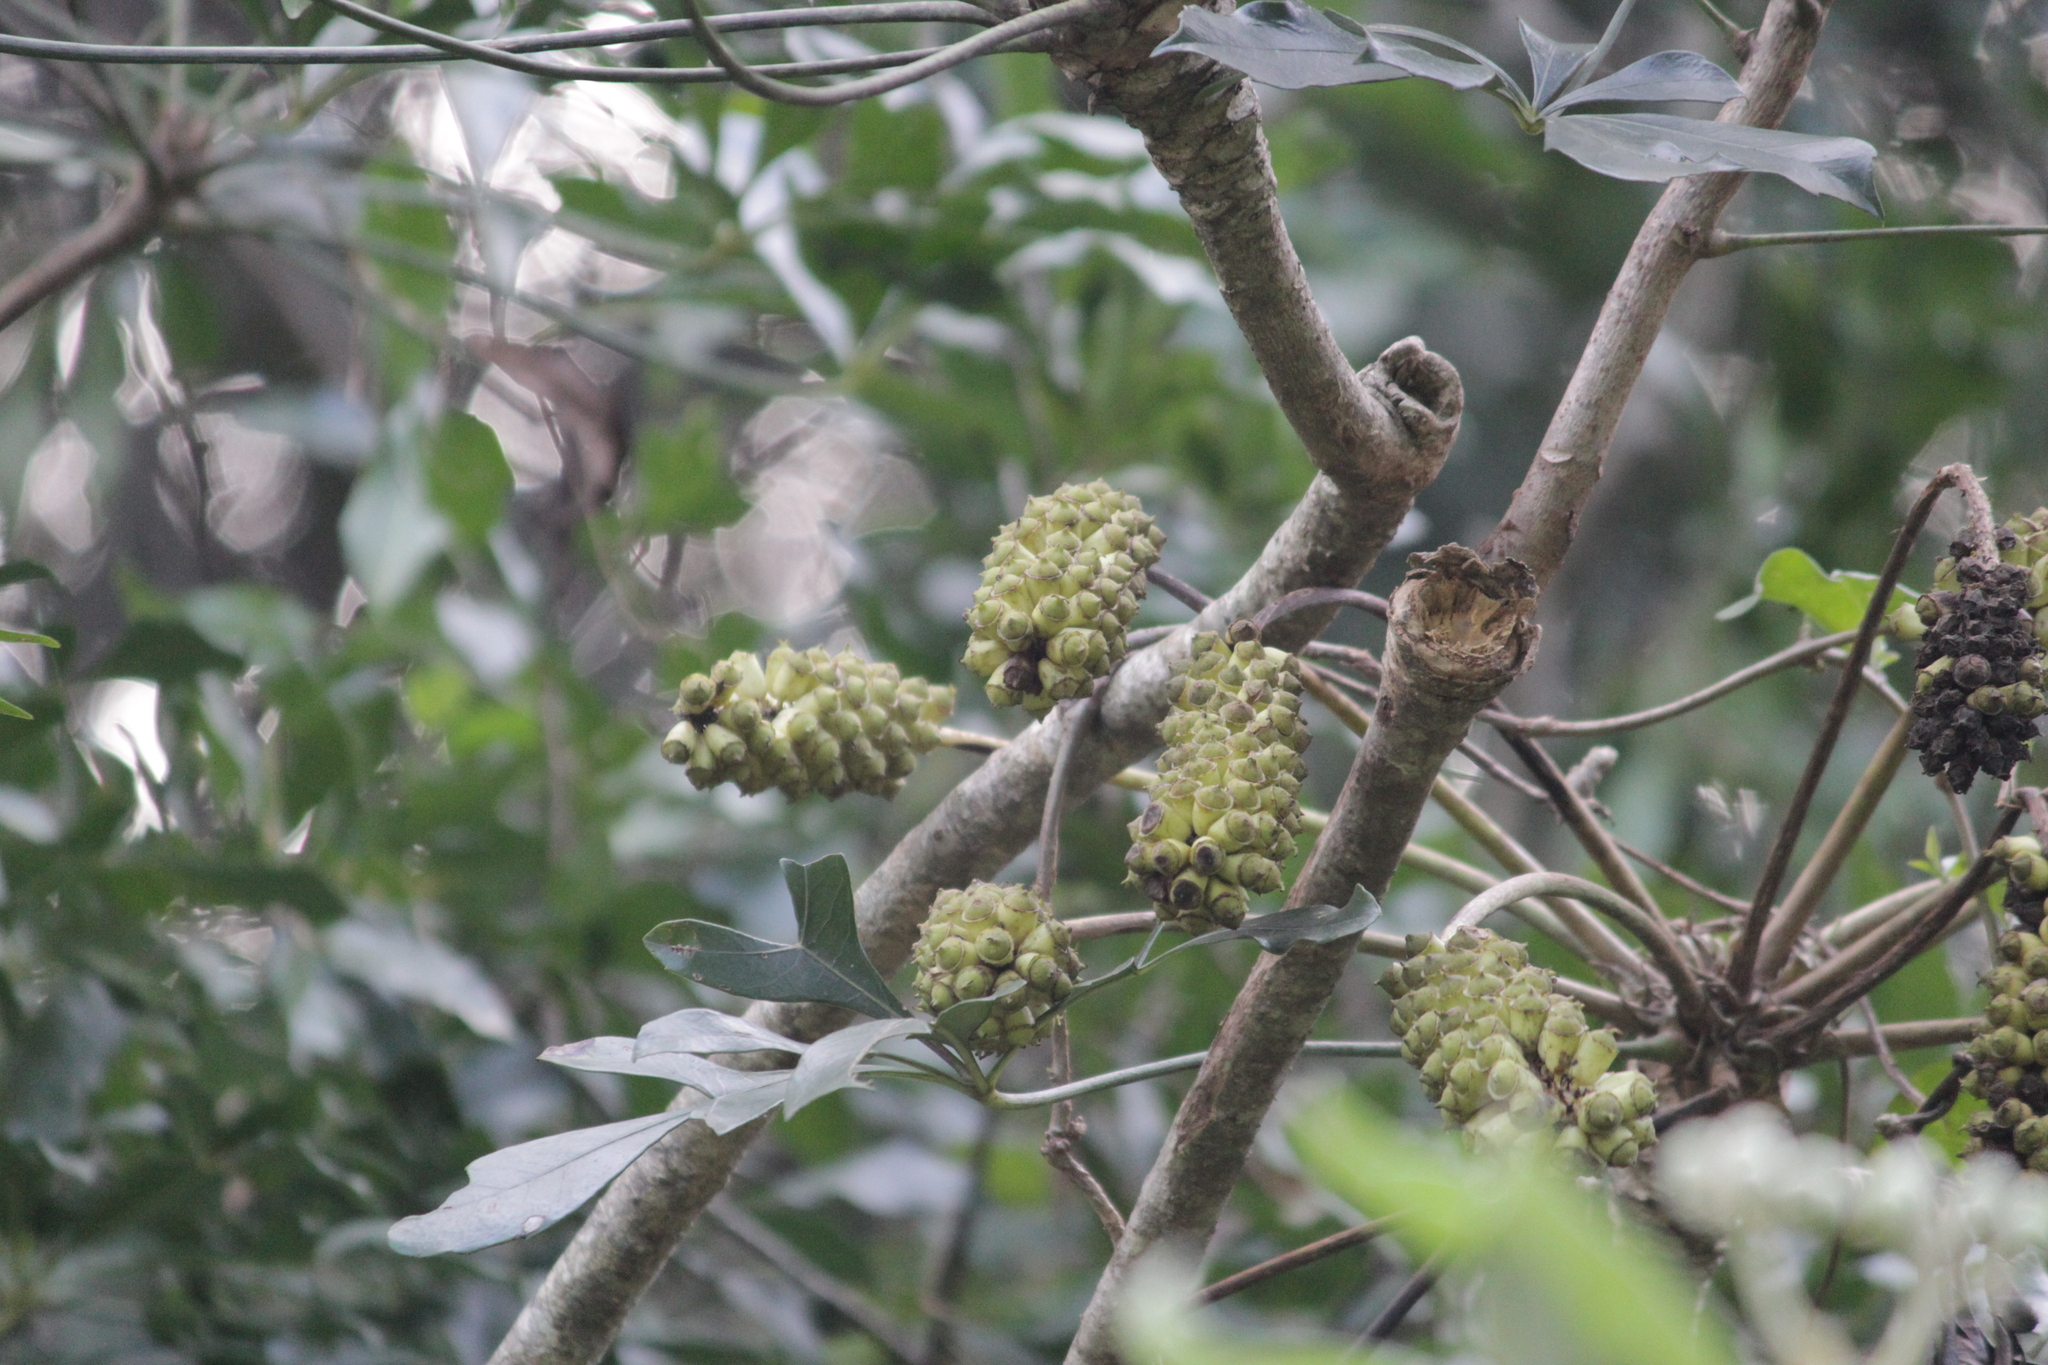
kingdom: Plantae
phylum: Tracheophyta
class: Magnoliopsida
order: Apiales
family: Araliaceae
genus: Cussonia
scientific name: Cussonia nicholsonii
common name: South coast cabbage-tree
